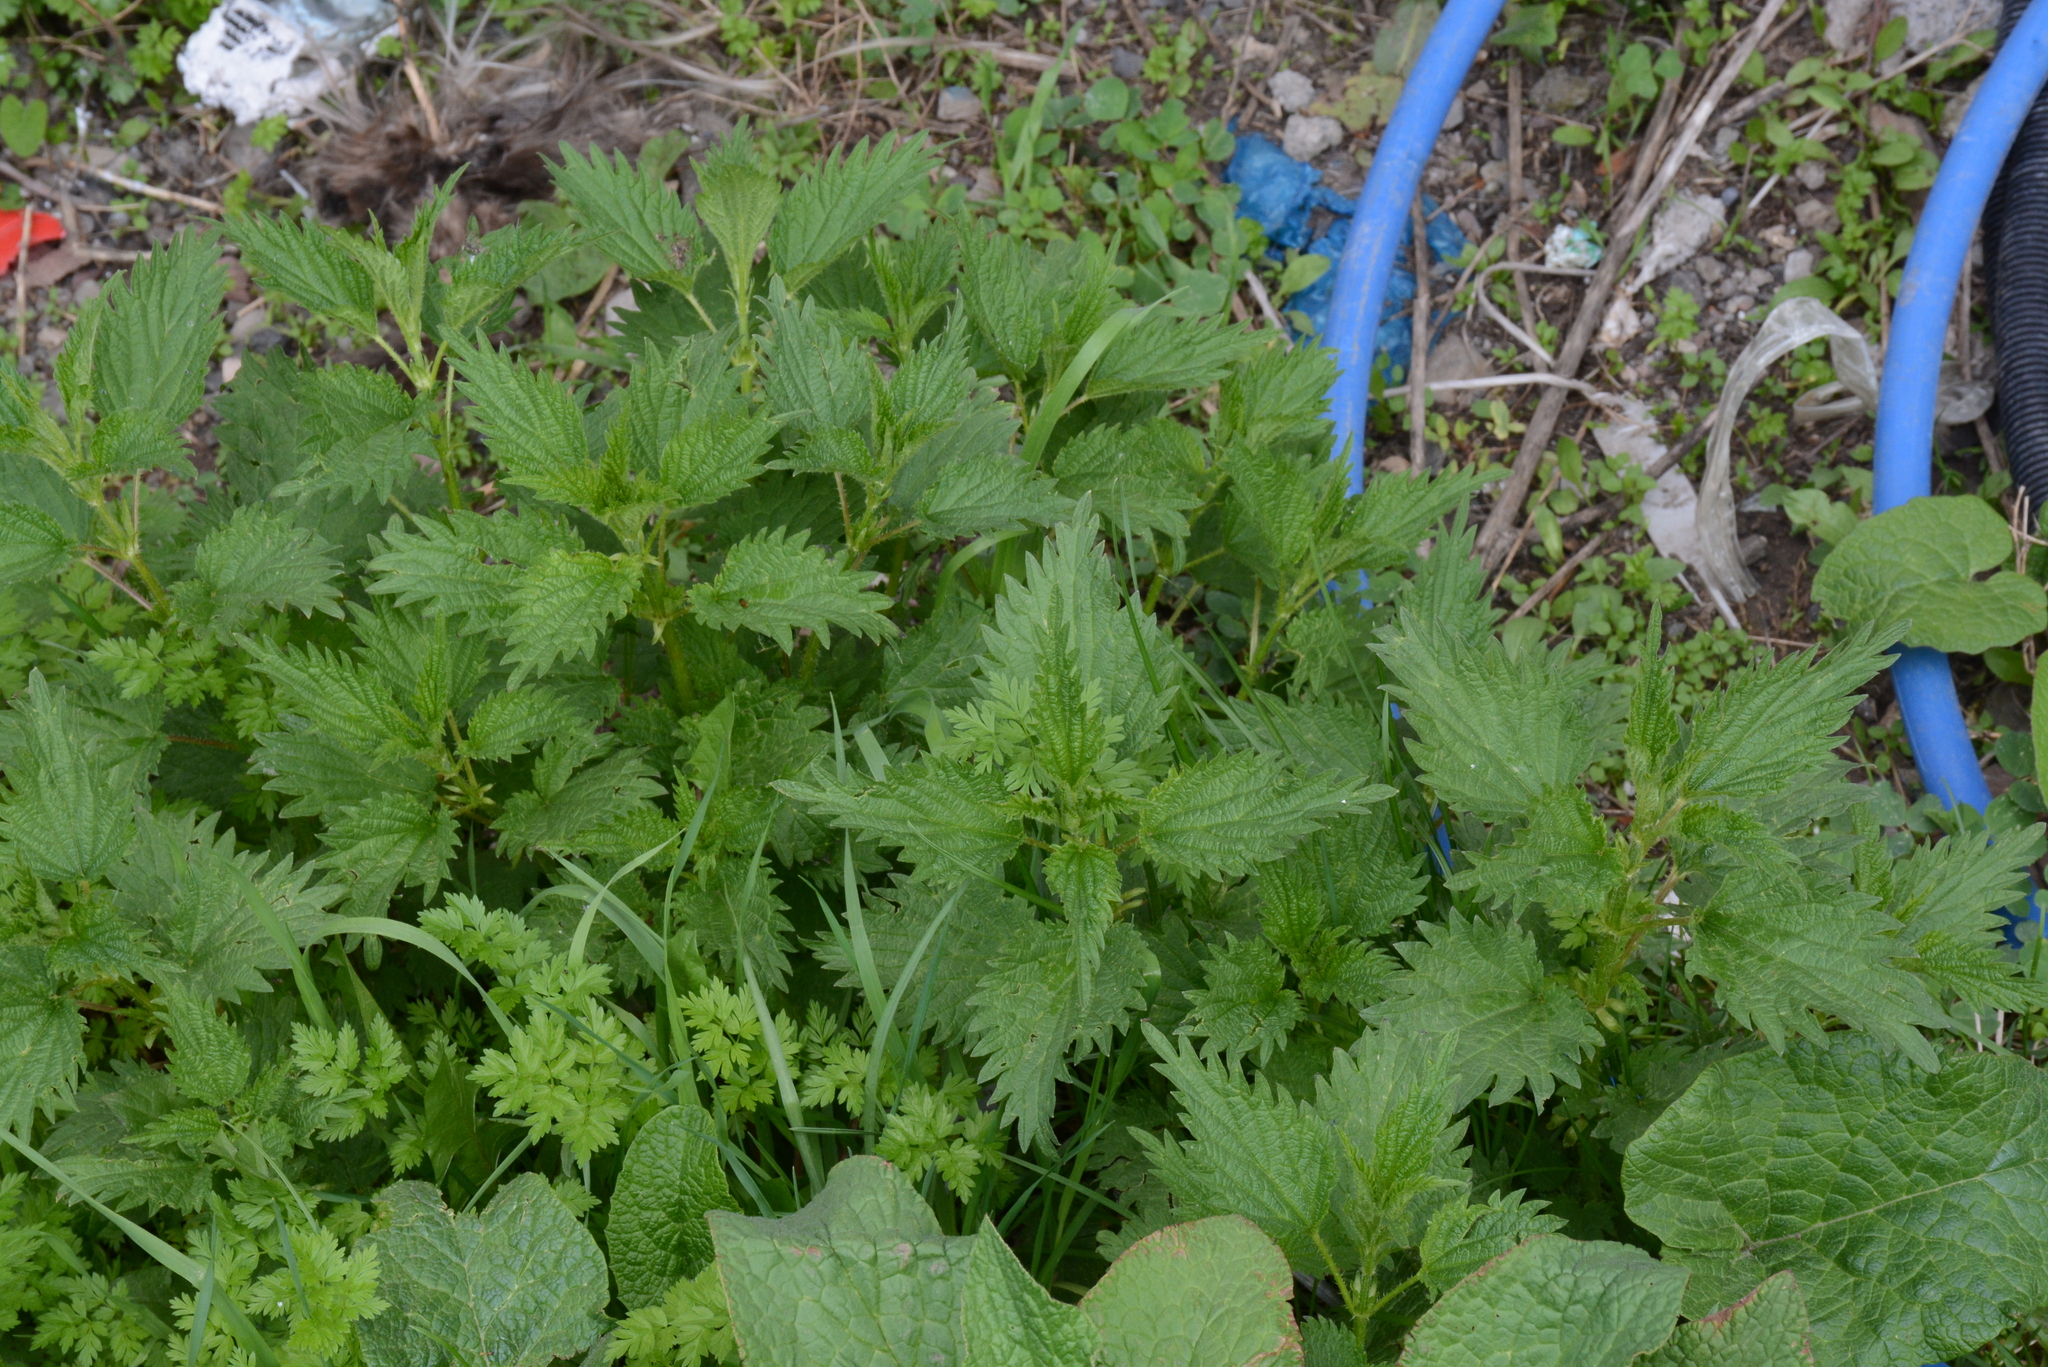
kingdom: Plantae
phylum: Tracheophyta
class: Magnoliopsida
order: Rosales
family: Urticaceae
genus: Urtica
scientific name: Urtica dioica
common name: Common nettle
